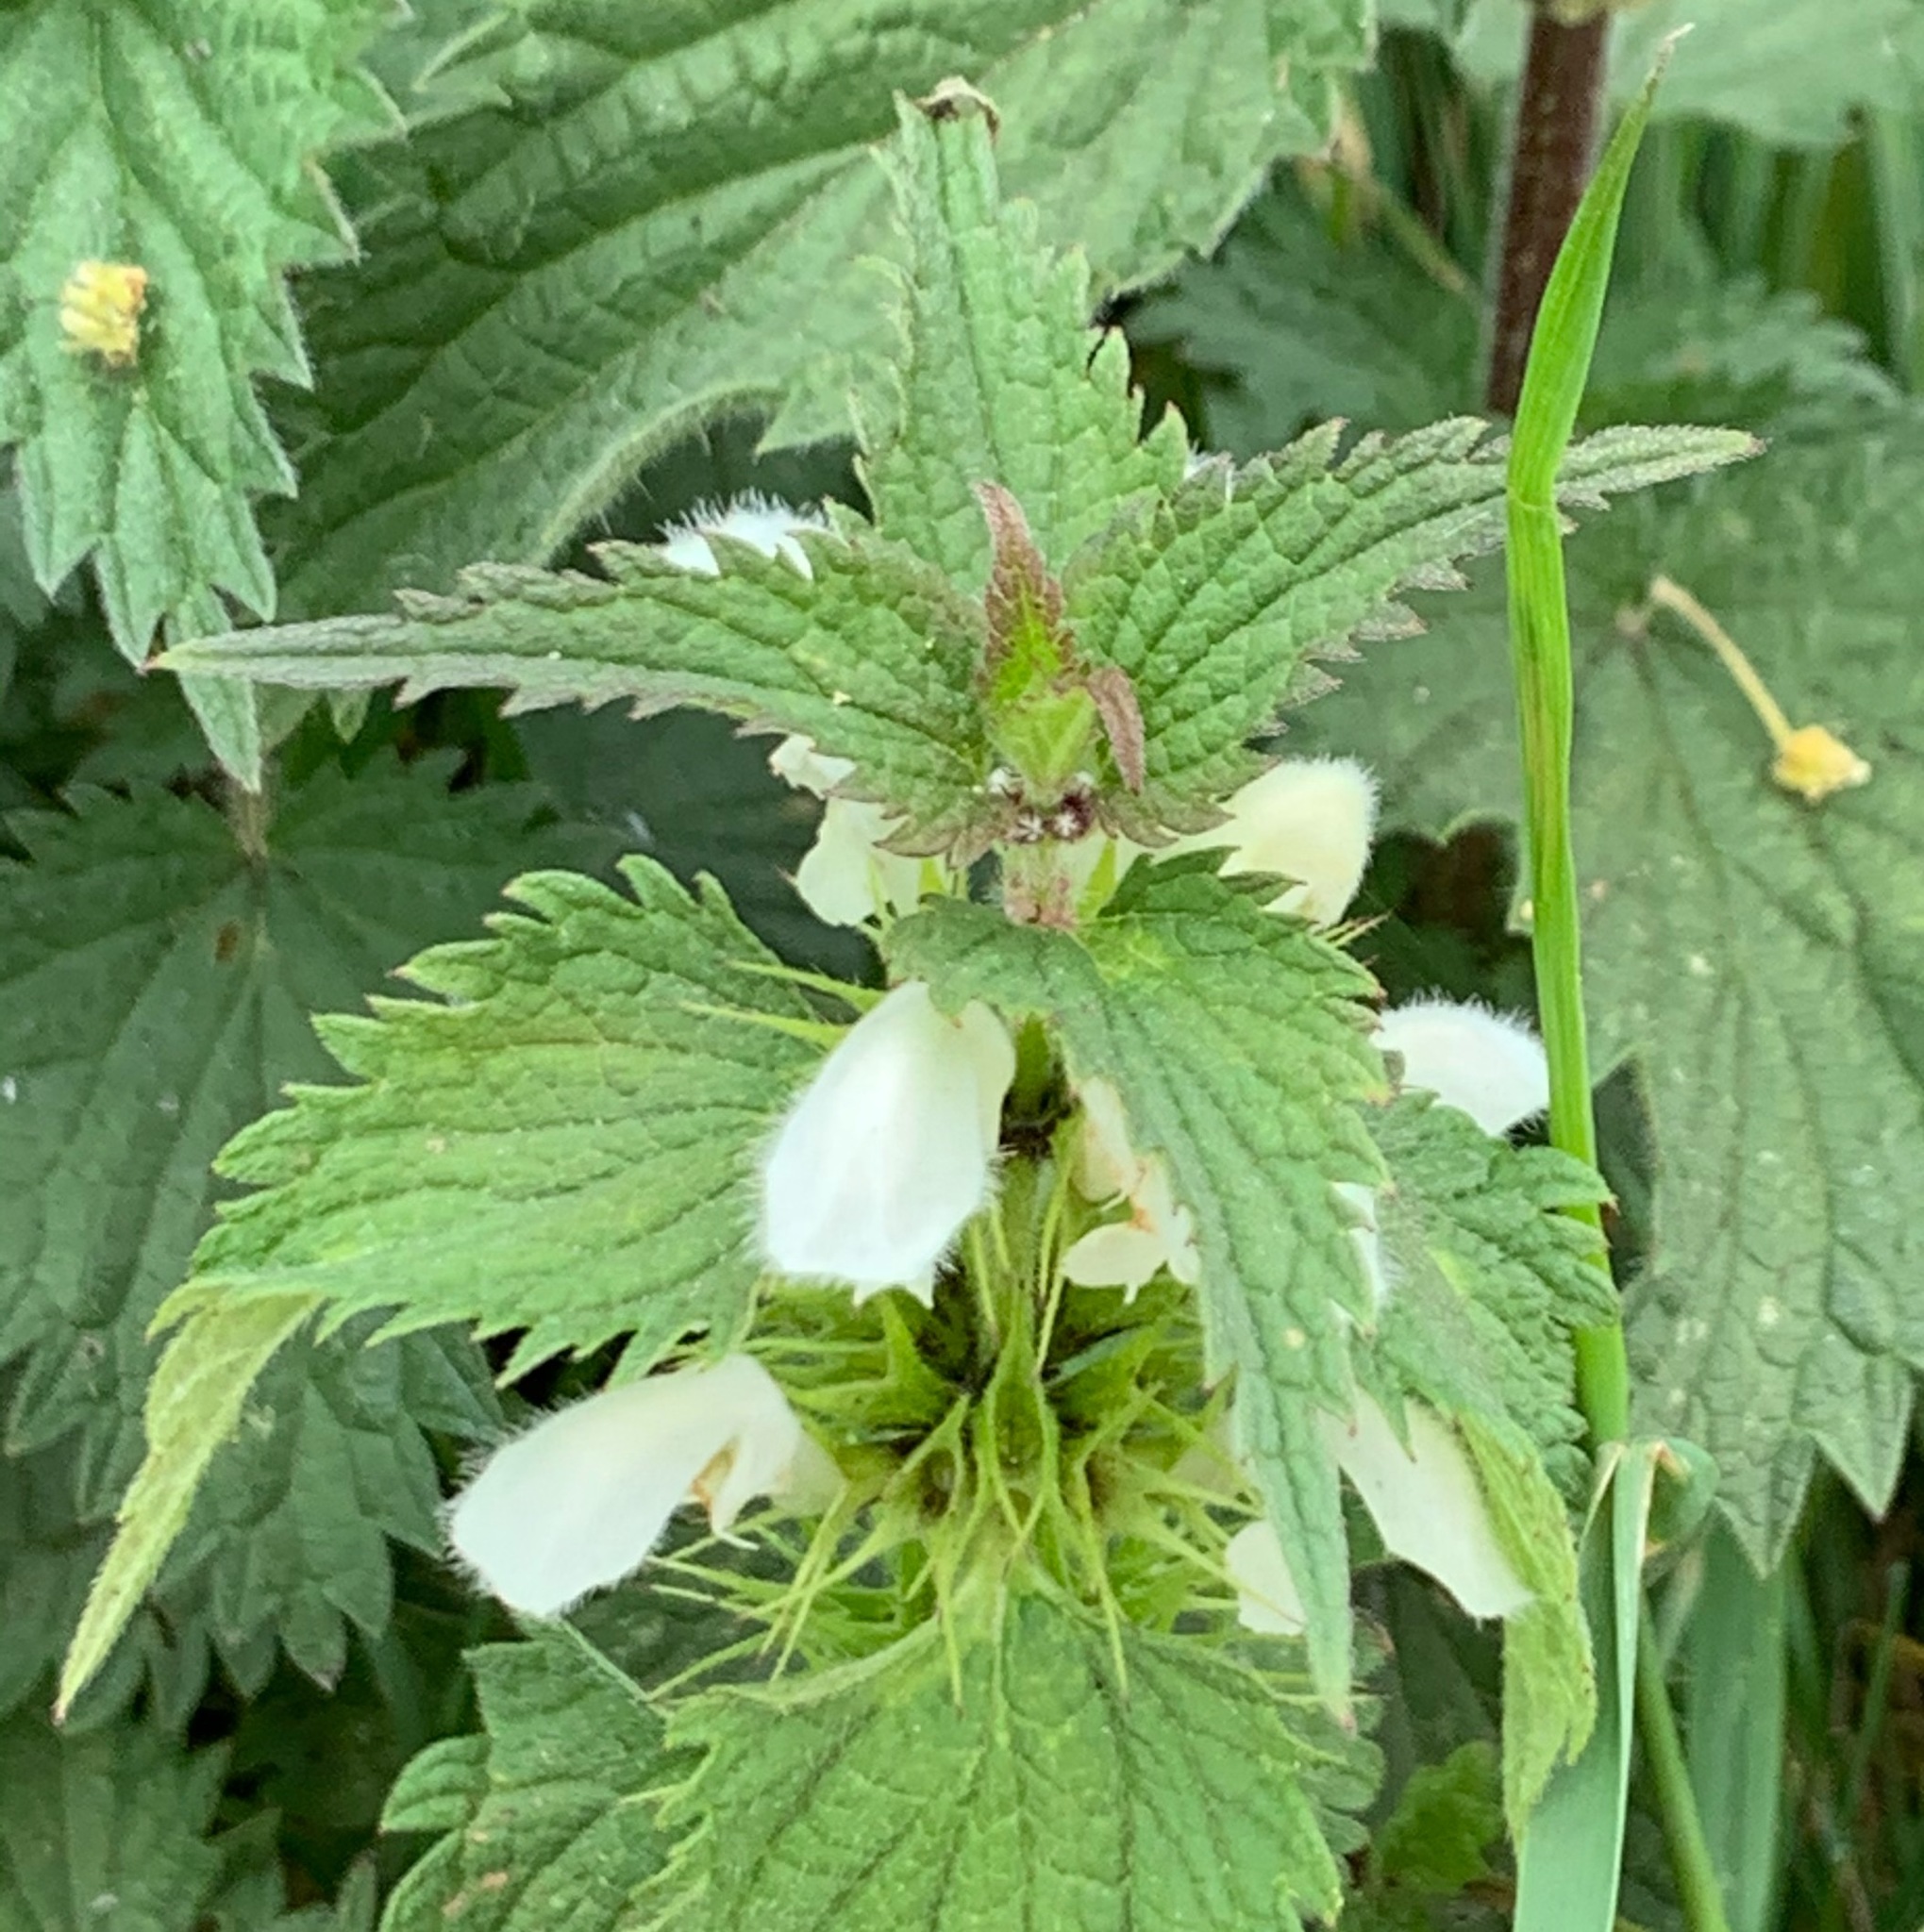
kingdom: Plantae
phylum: Tracheophyta
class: Magnoliopsida
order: Lamiales
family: Lamiaceae
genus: Lamium
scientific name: Lamium album
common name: White dead-nettle
